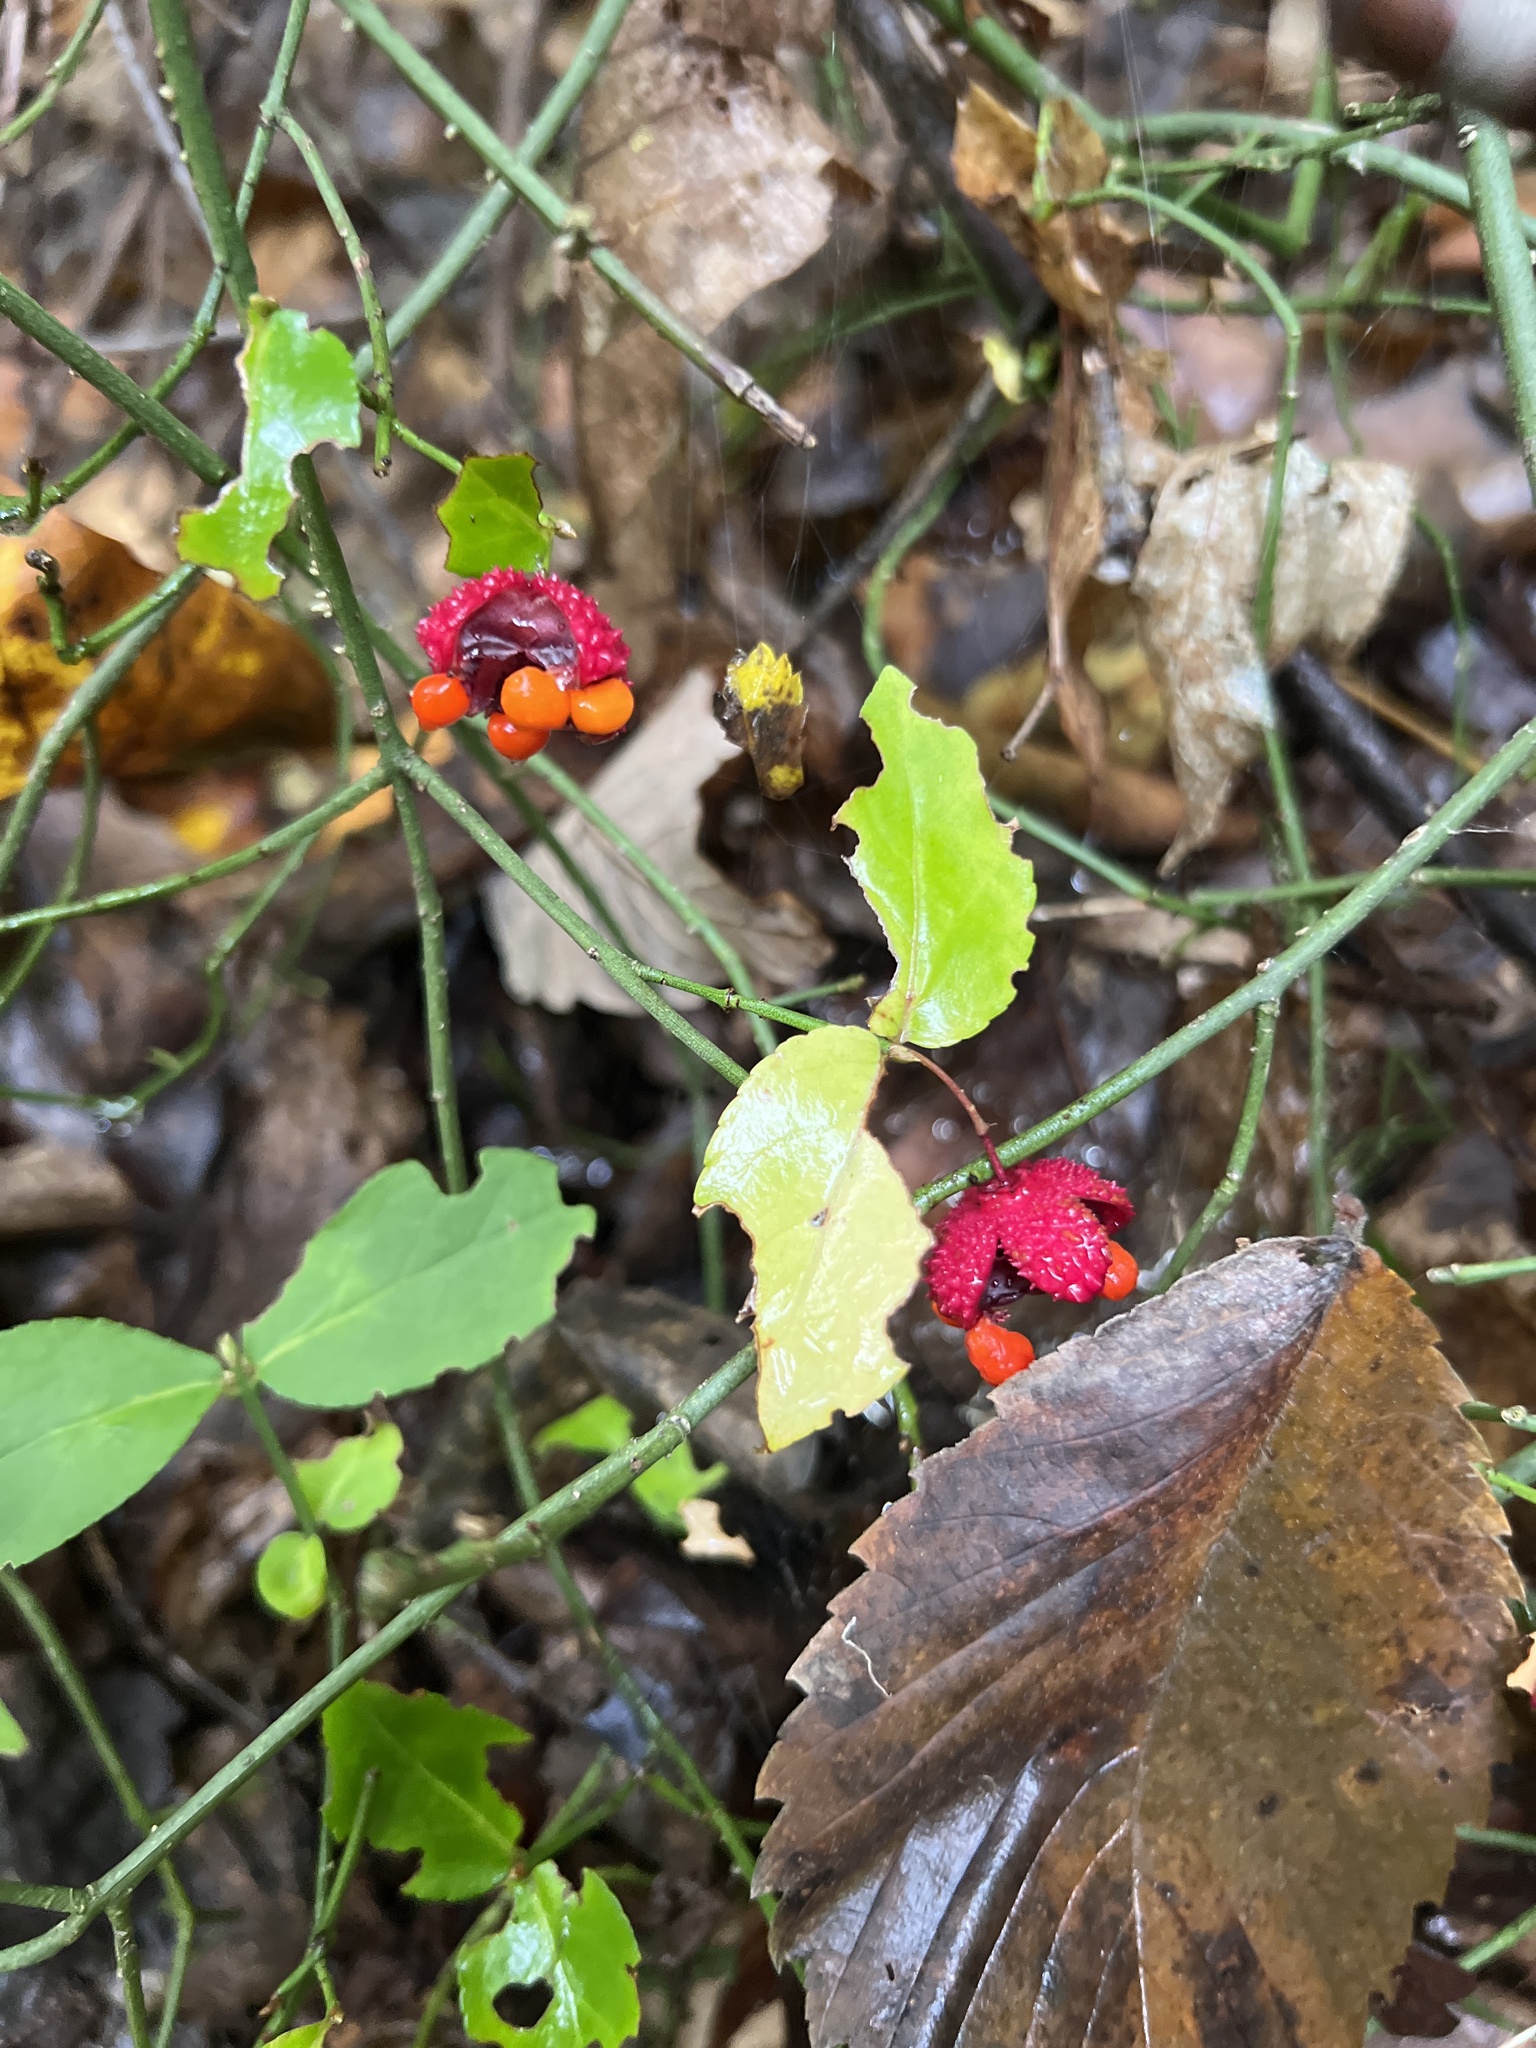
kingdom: Plantae
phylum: Tracheophyta
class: Magnoliopsida
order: Celastrales
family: Celastraceae
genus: Euonymus
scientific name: Euonymus americanus
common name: Bursting-heart
